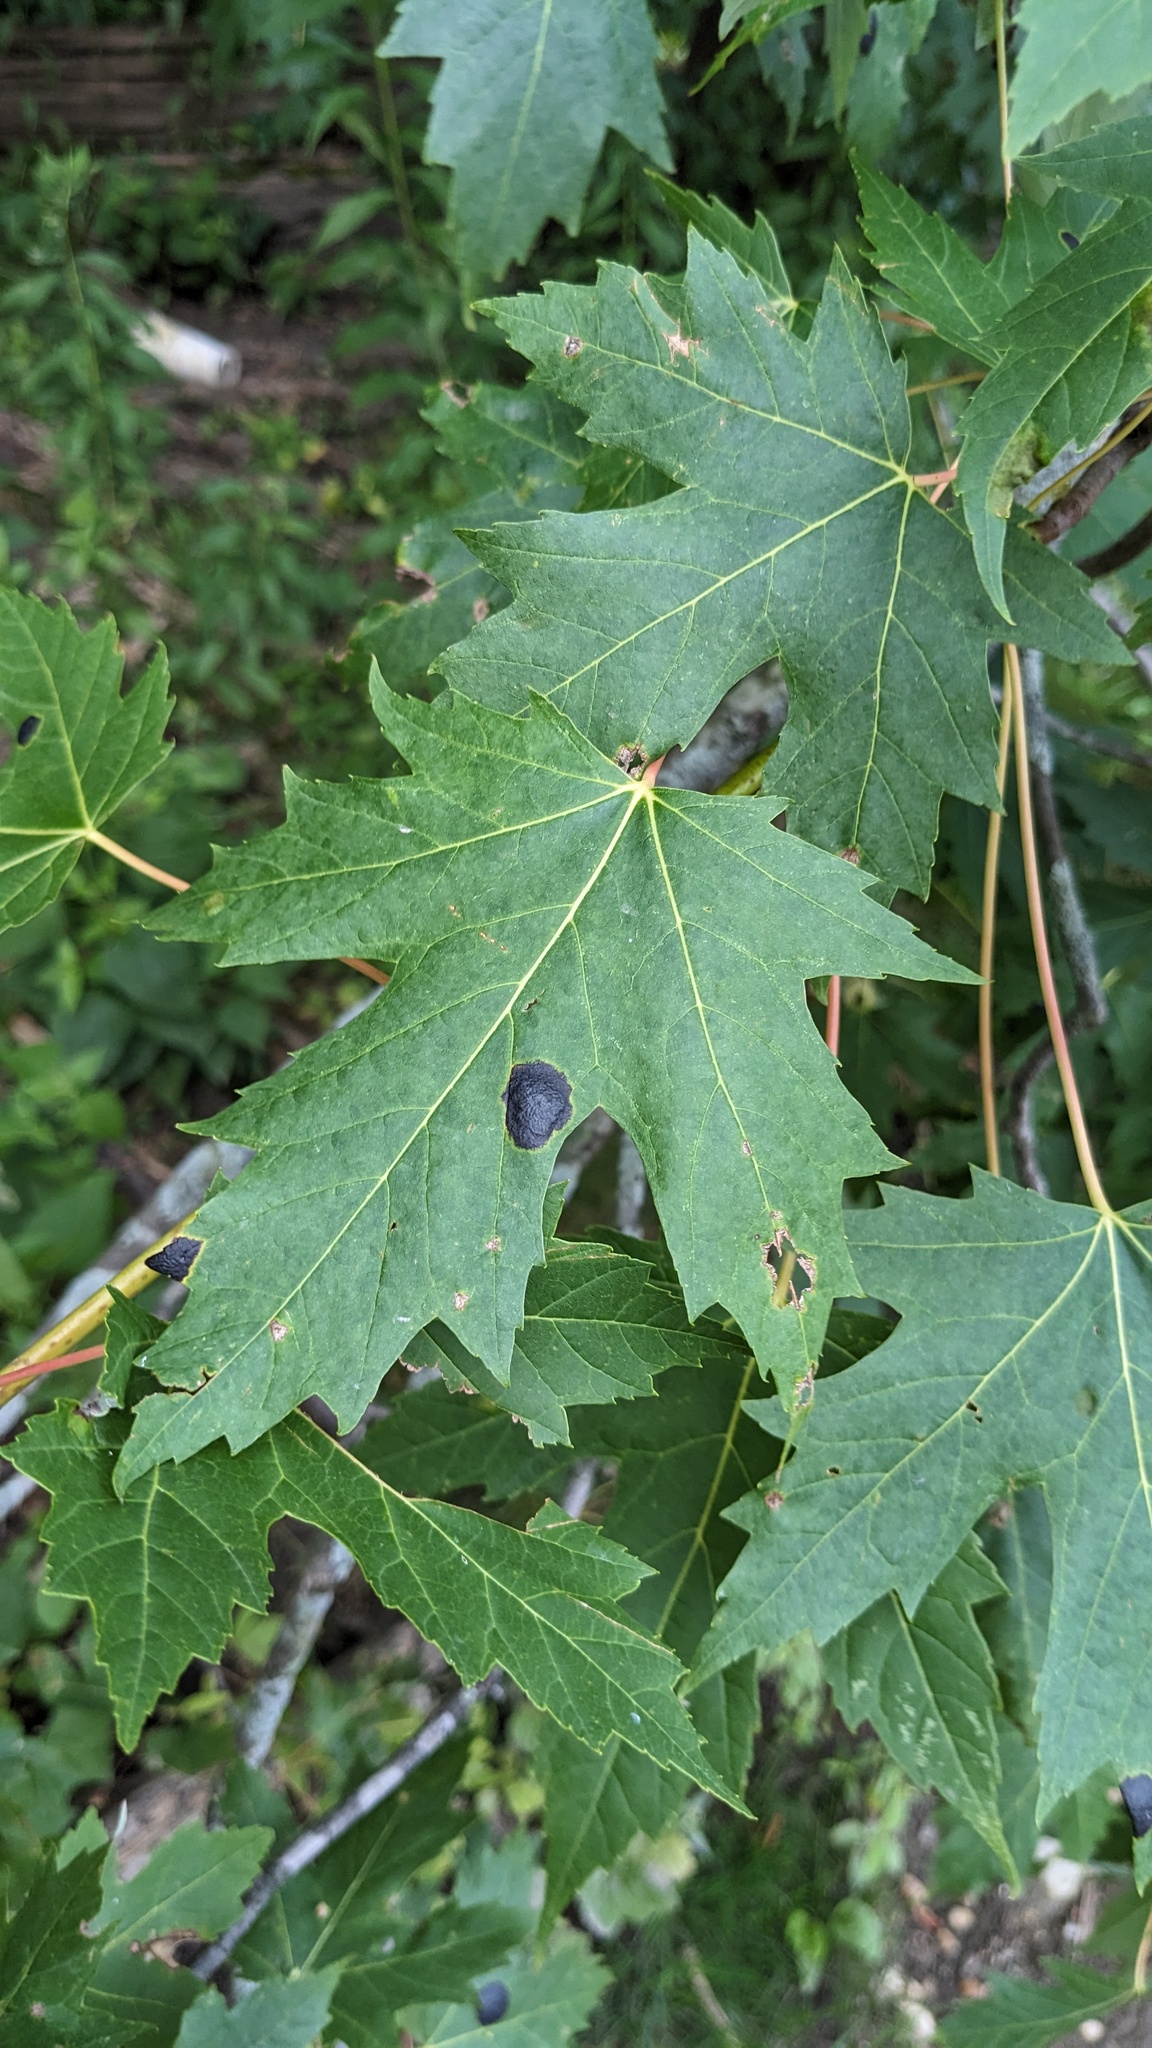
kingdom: Plantae
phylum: Tracheophyta
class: Magnoliopsida
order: Sapindales
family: Sapindaceae
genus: Acer
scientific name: Acer saccharinum
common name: Silver maple
